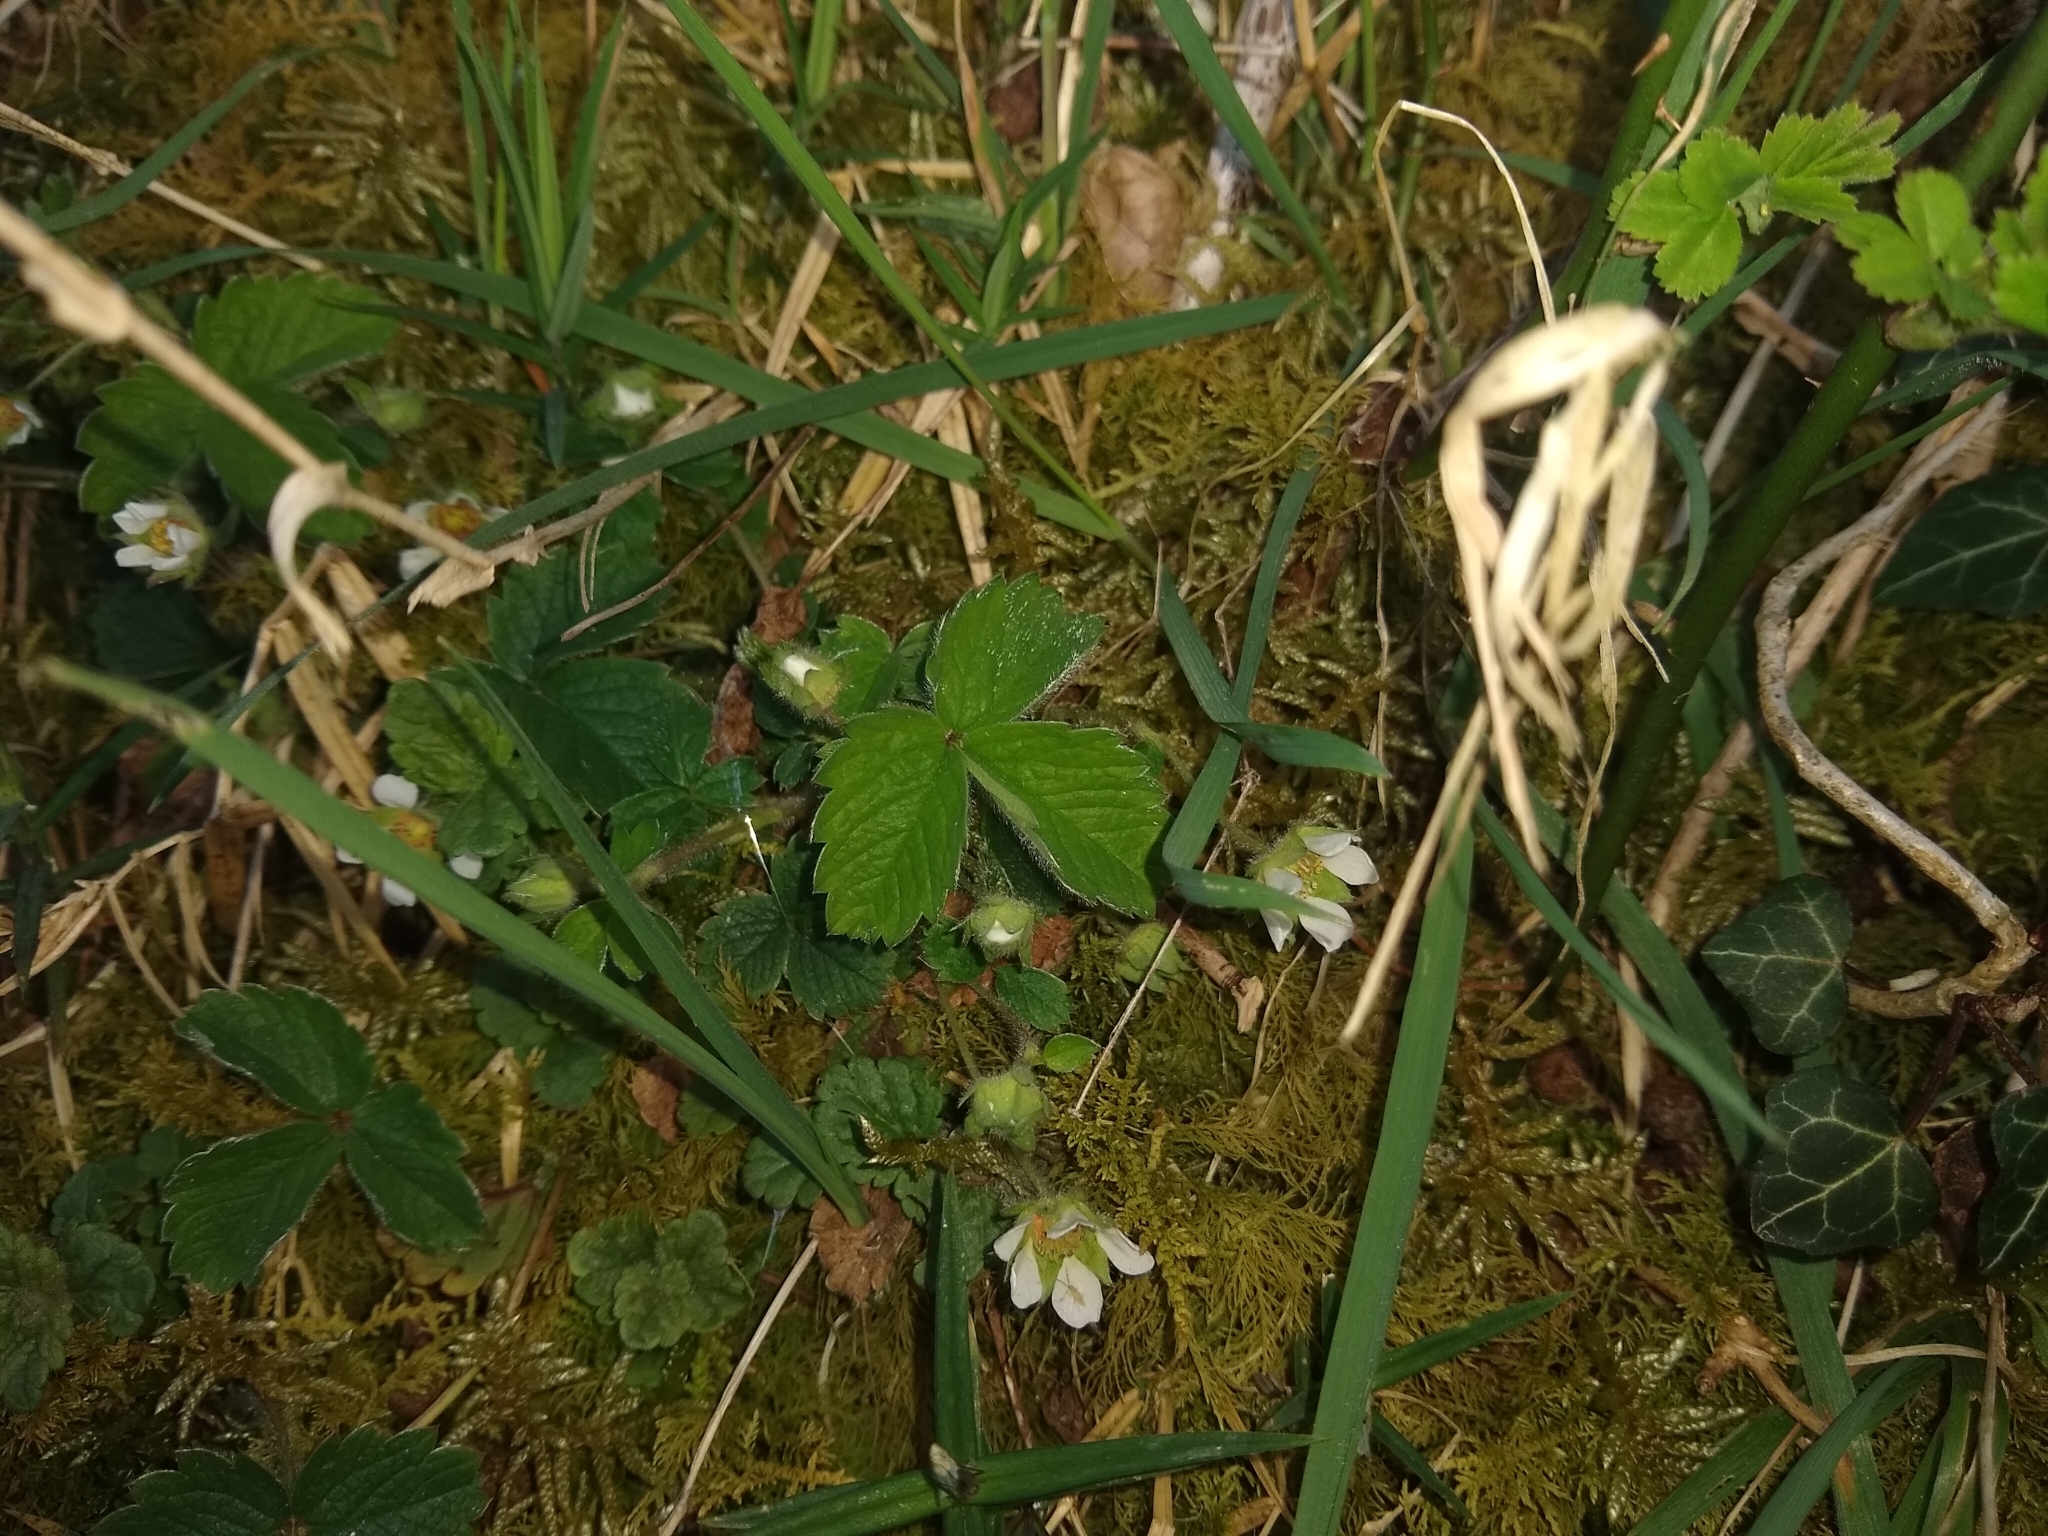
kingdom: Plantae
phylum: Tracheophyta
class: Magnoliopsida
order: Rosales
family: Rosaceae
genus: Potentilla
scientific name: Potentilla sterilis
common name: Barren strawberry
